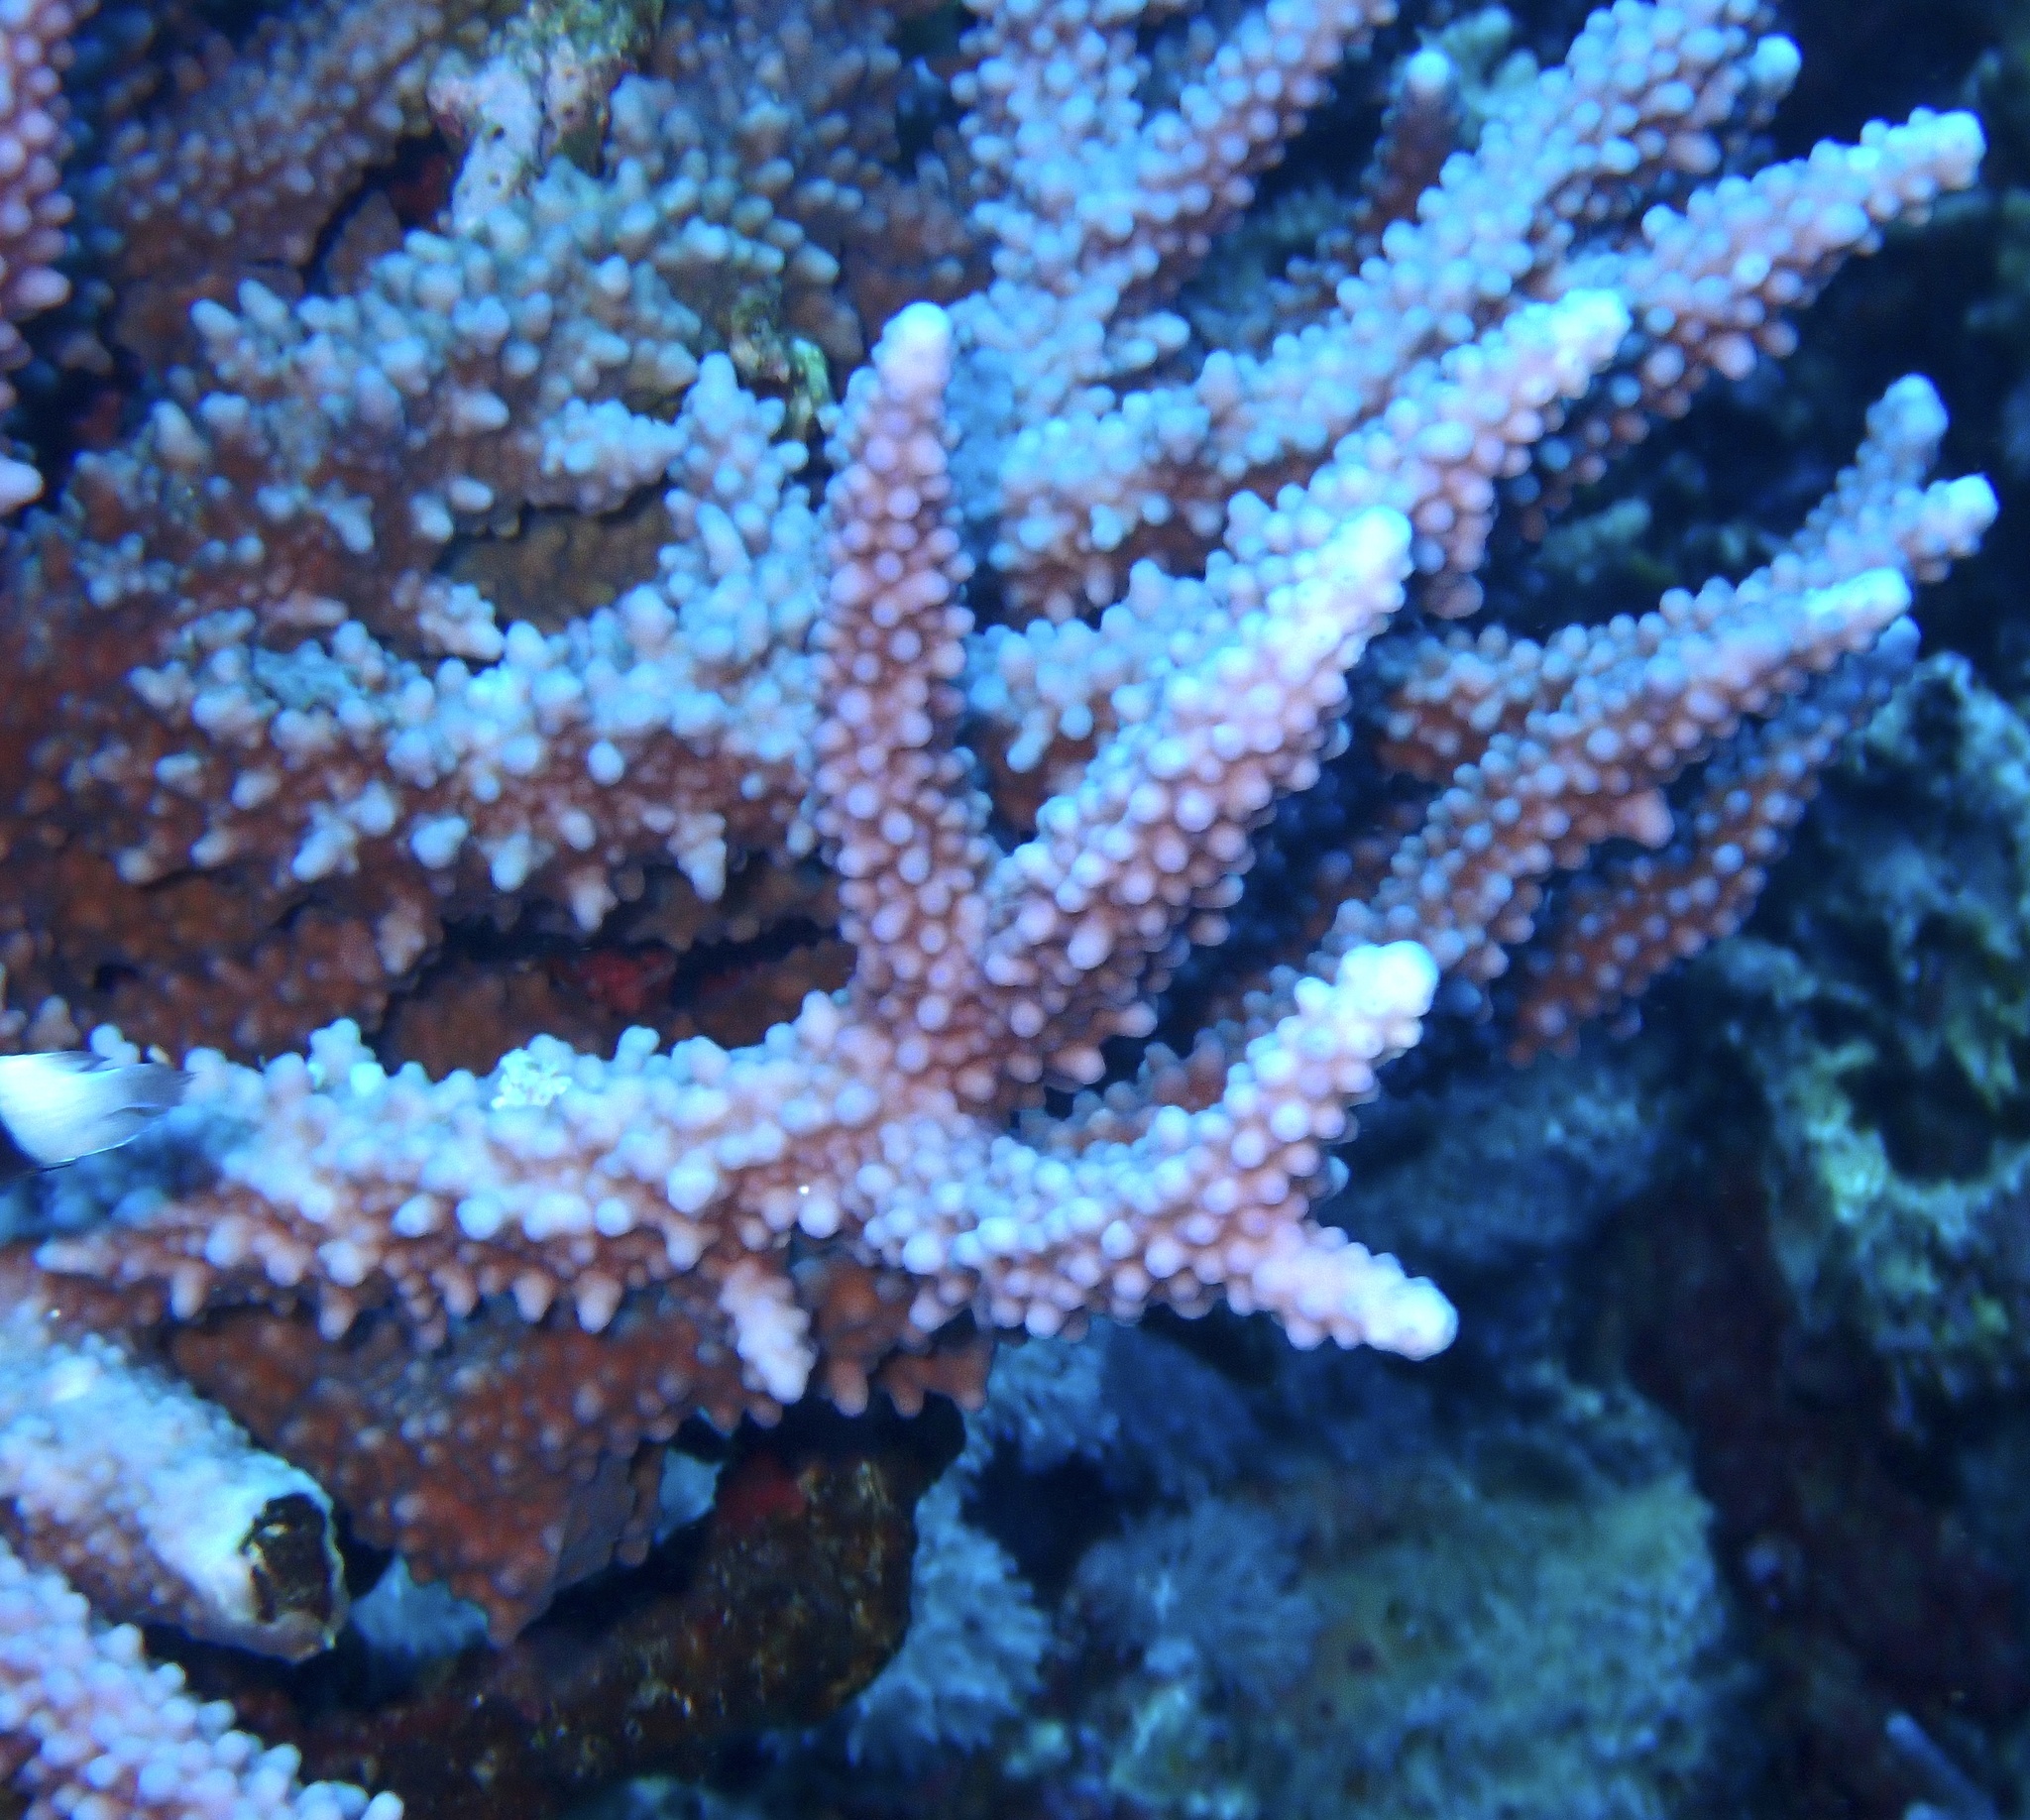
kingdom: Animalia
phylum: Cnidaria
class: Anthozoa
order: Scleractinia
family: Acroporidae
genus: Acropora
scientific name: Acropora hemprichii
